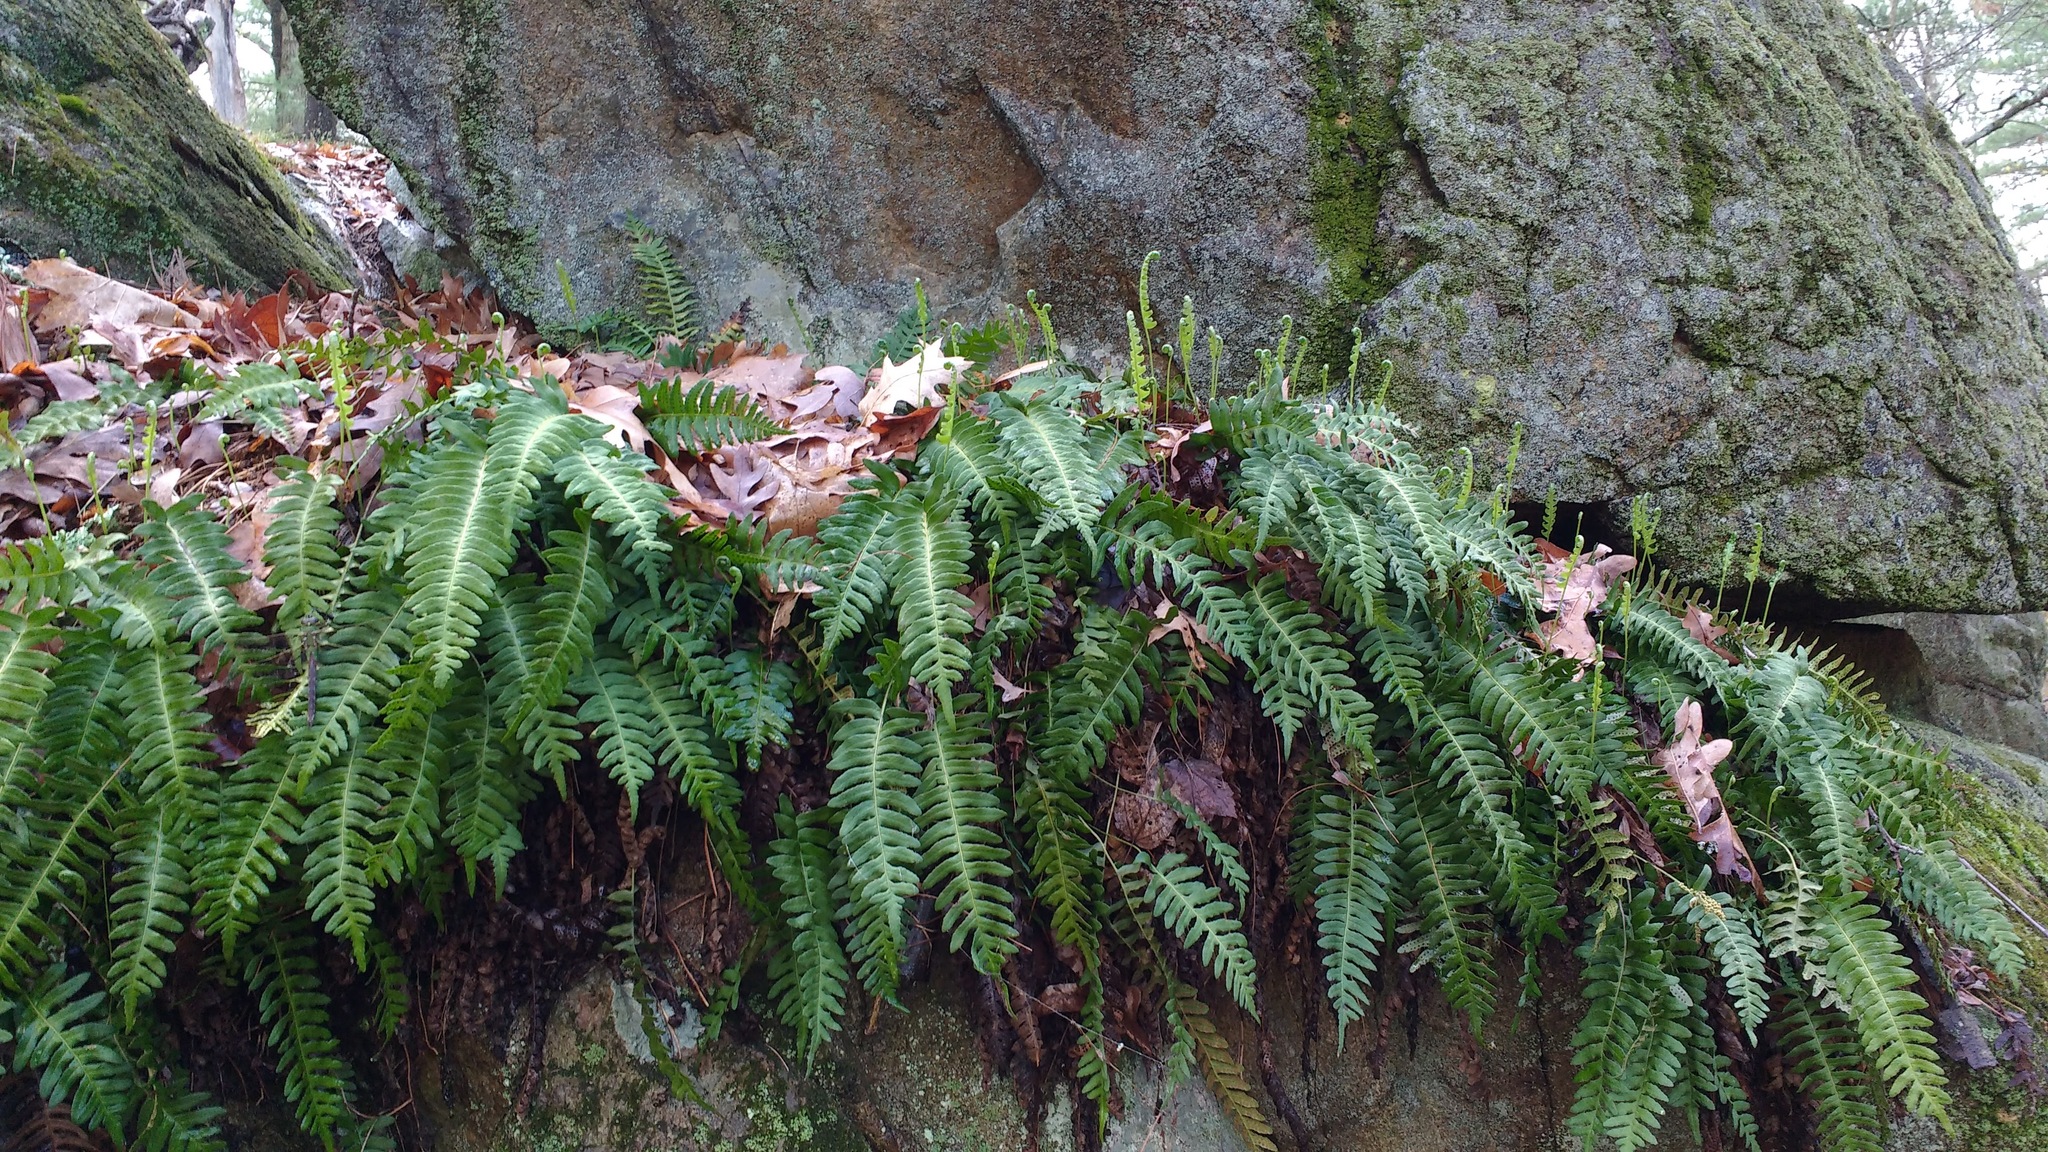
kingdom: Plantae
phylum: Tracheophyta
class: Polypodiopsida
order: Polypodiales
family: Polypodiaceae
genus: Polypodium
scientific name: Polypodium virginianum
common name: American wall fern
